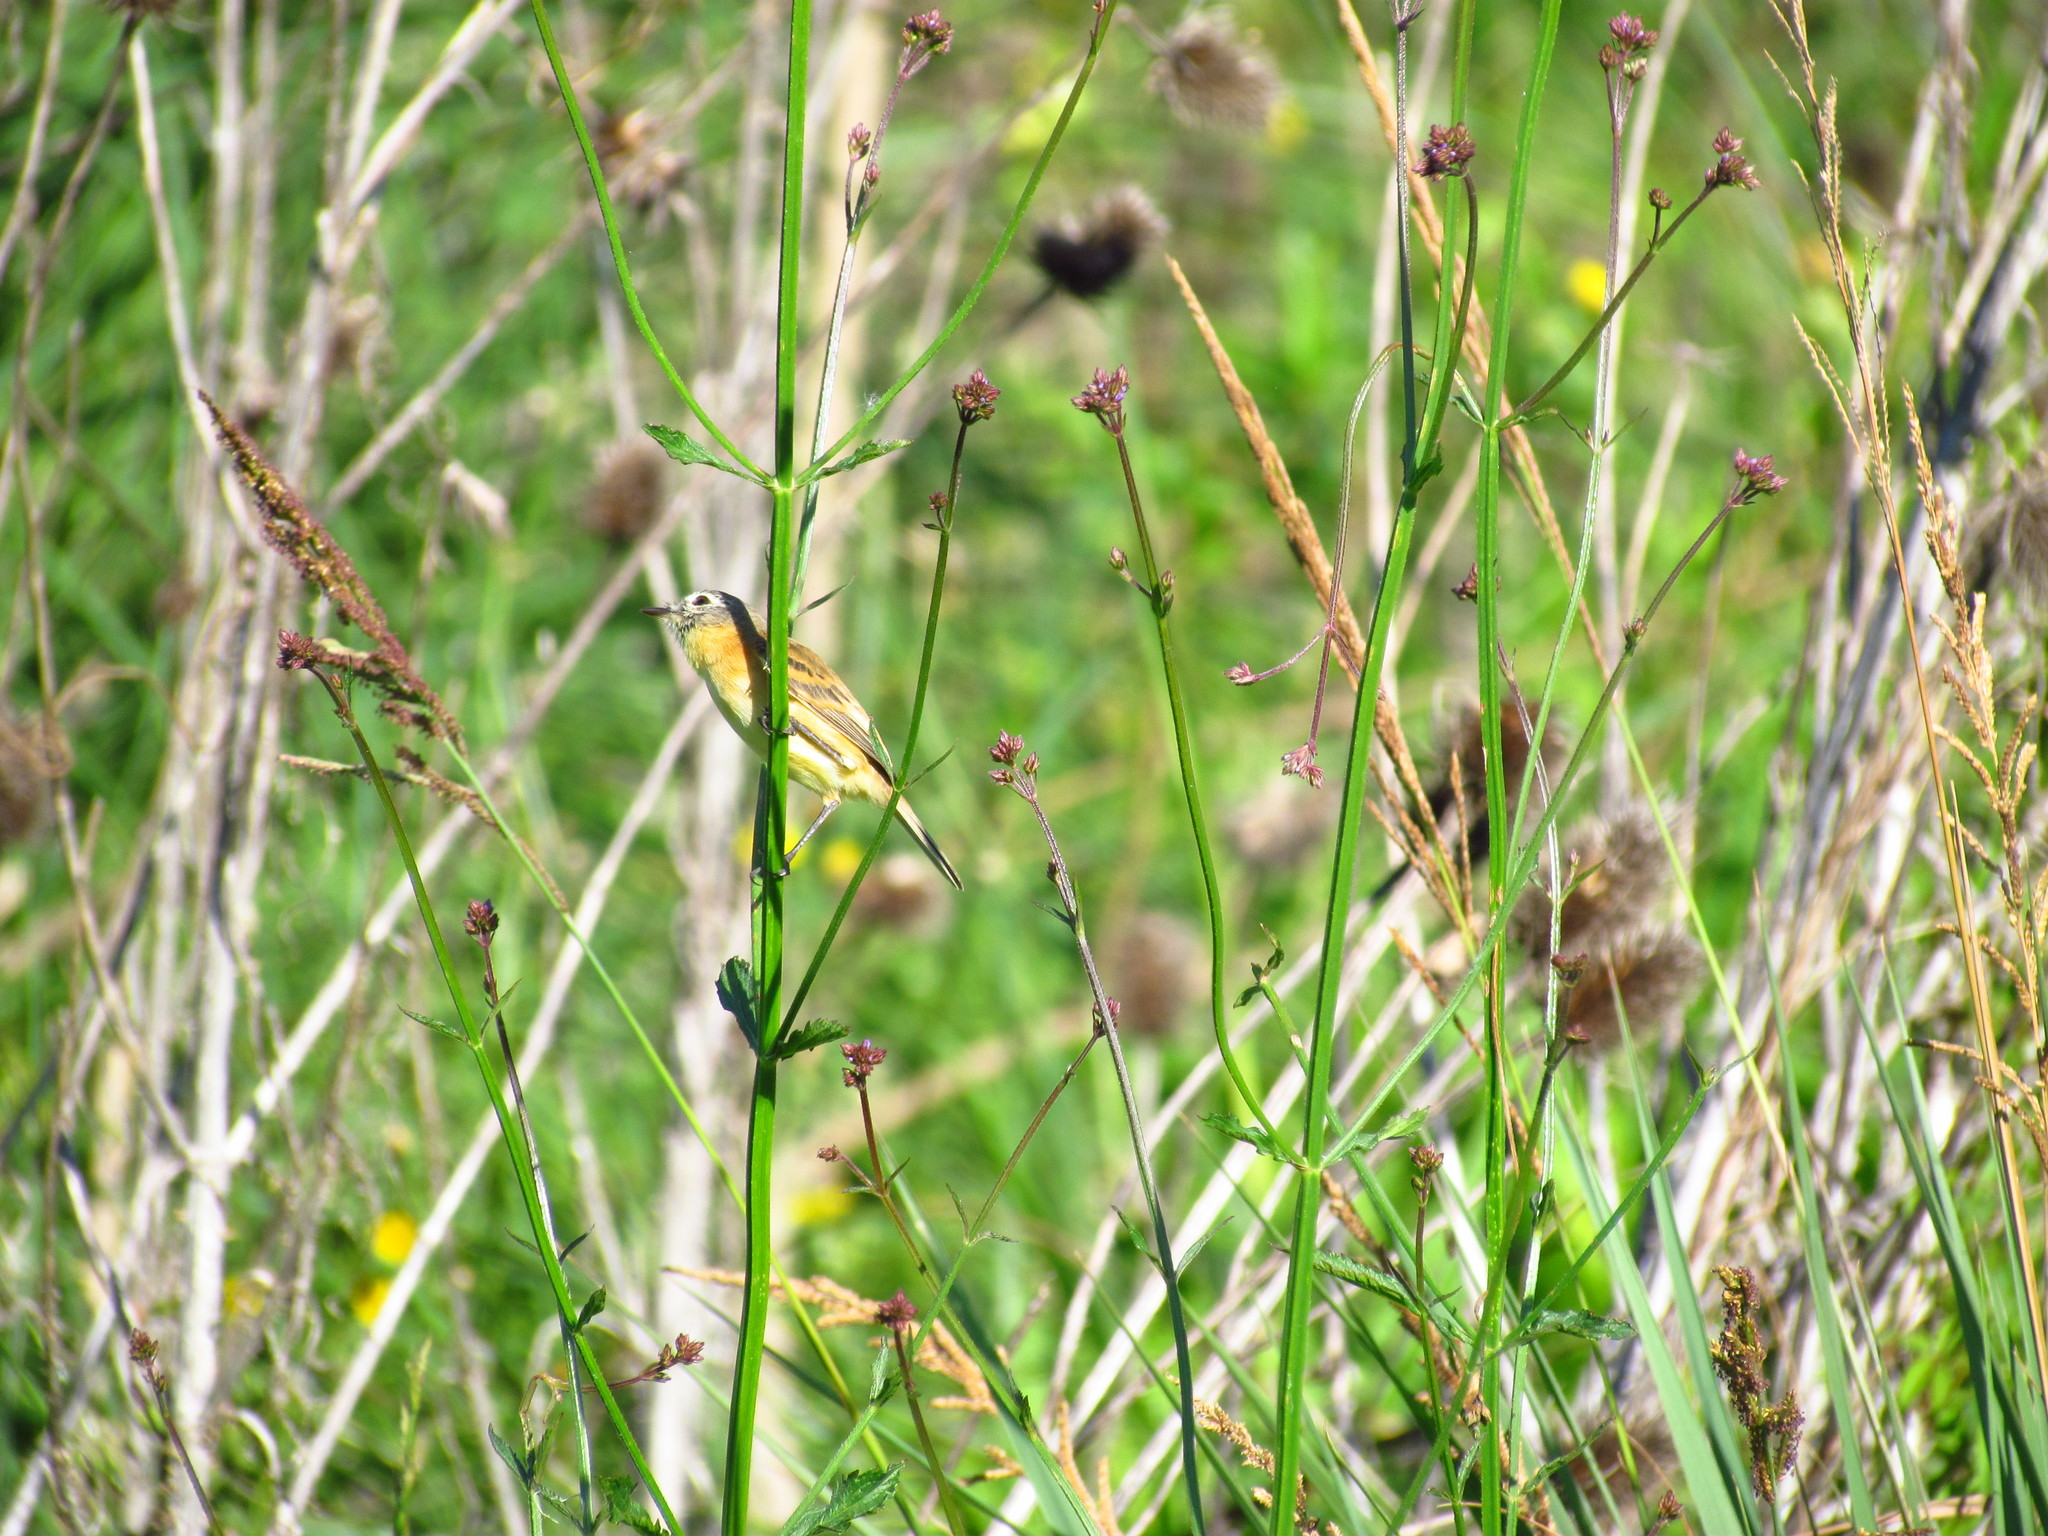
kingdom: Animalia
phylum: Chordata
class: Aves
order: Passeriformes
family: Thraupidae
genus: Donacospiza
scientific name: Donacospiza albifrons
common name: Long-tailed reed finch
